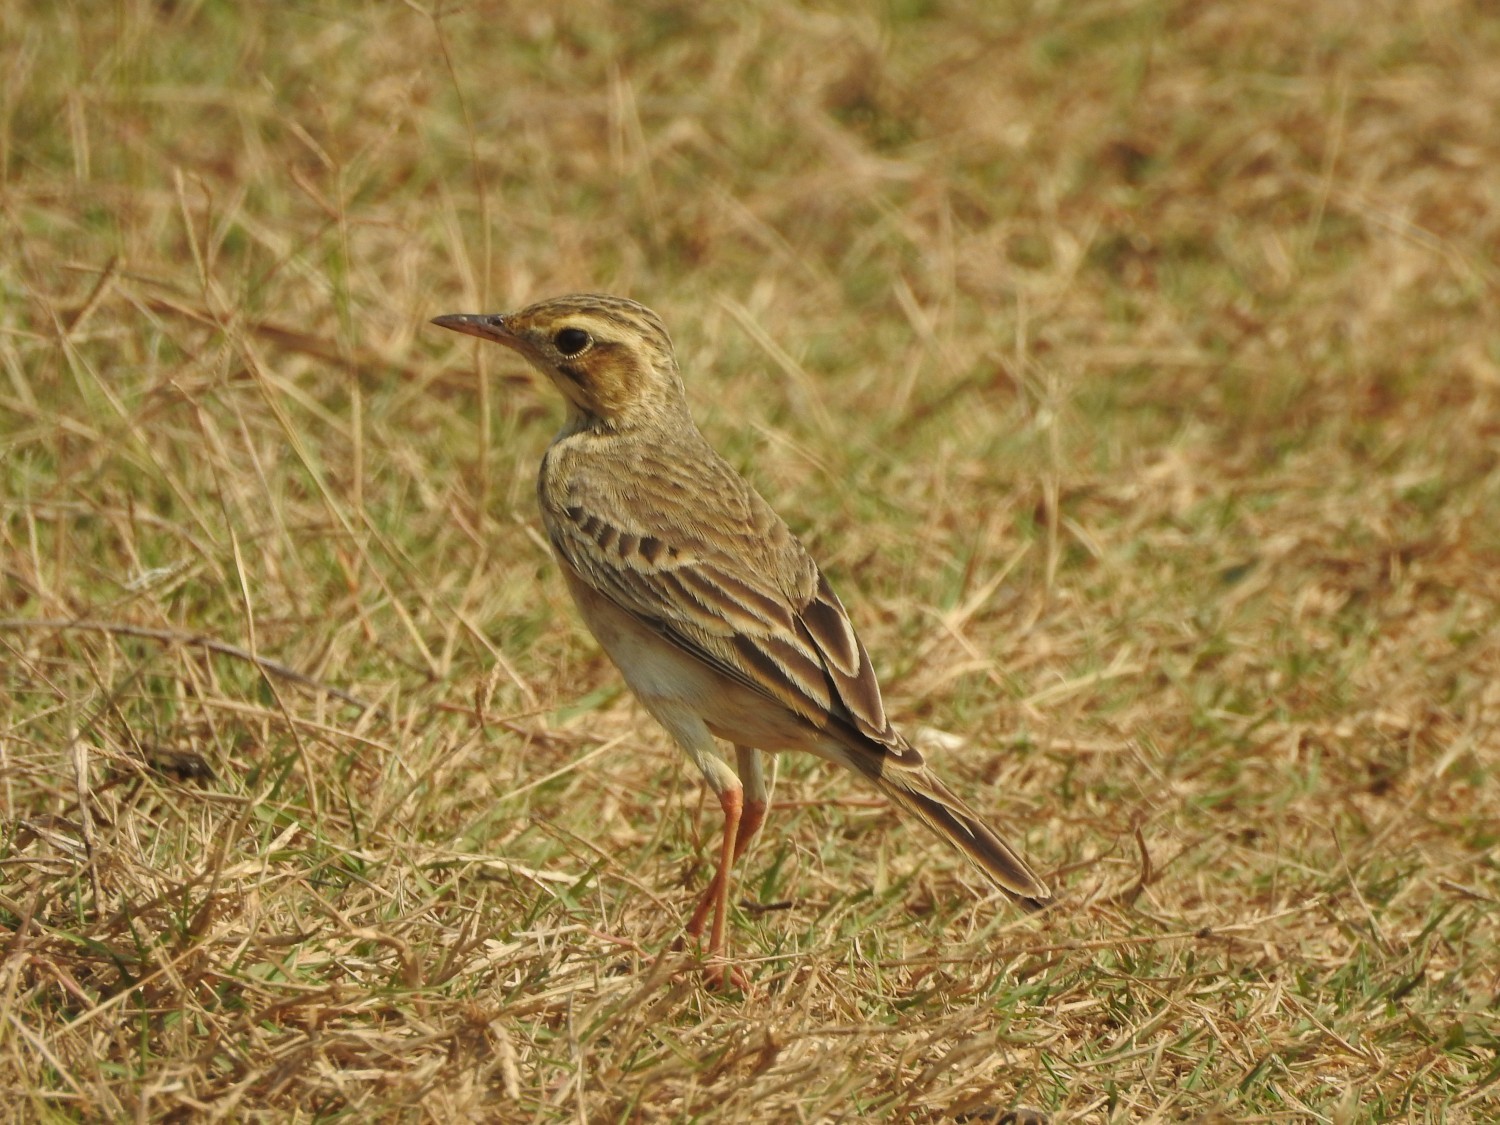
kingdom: Animalia
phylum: Chordata
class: Aves
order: Passeriformes
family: Motacillidae
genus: Anthus
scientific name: Anthus rufulus
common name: Paddyfield pipit
